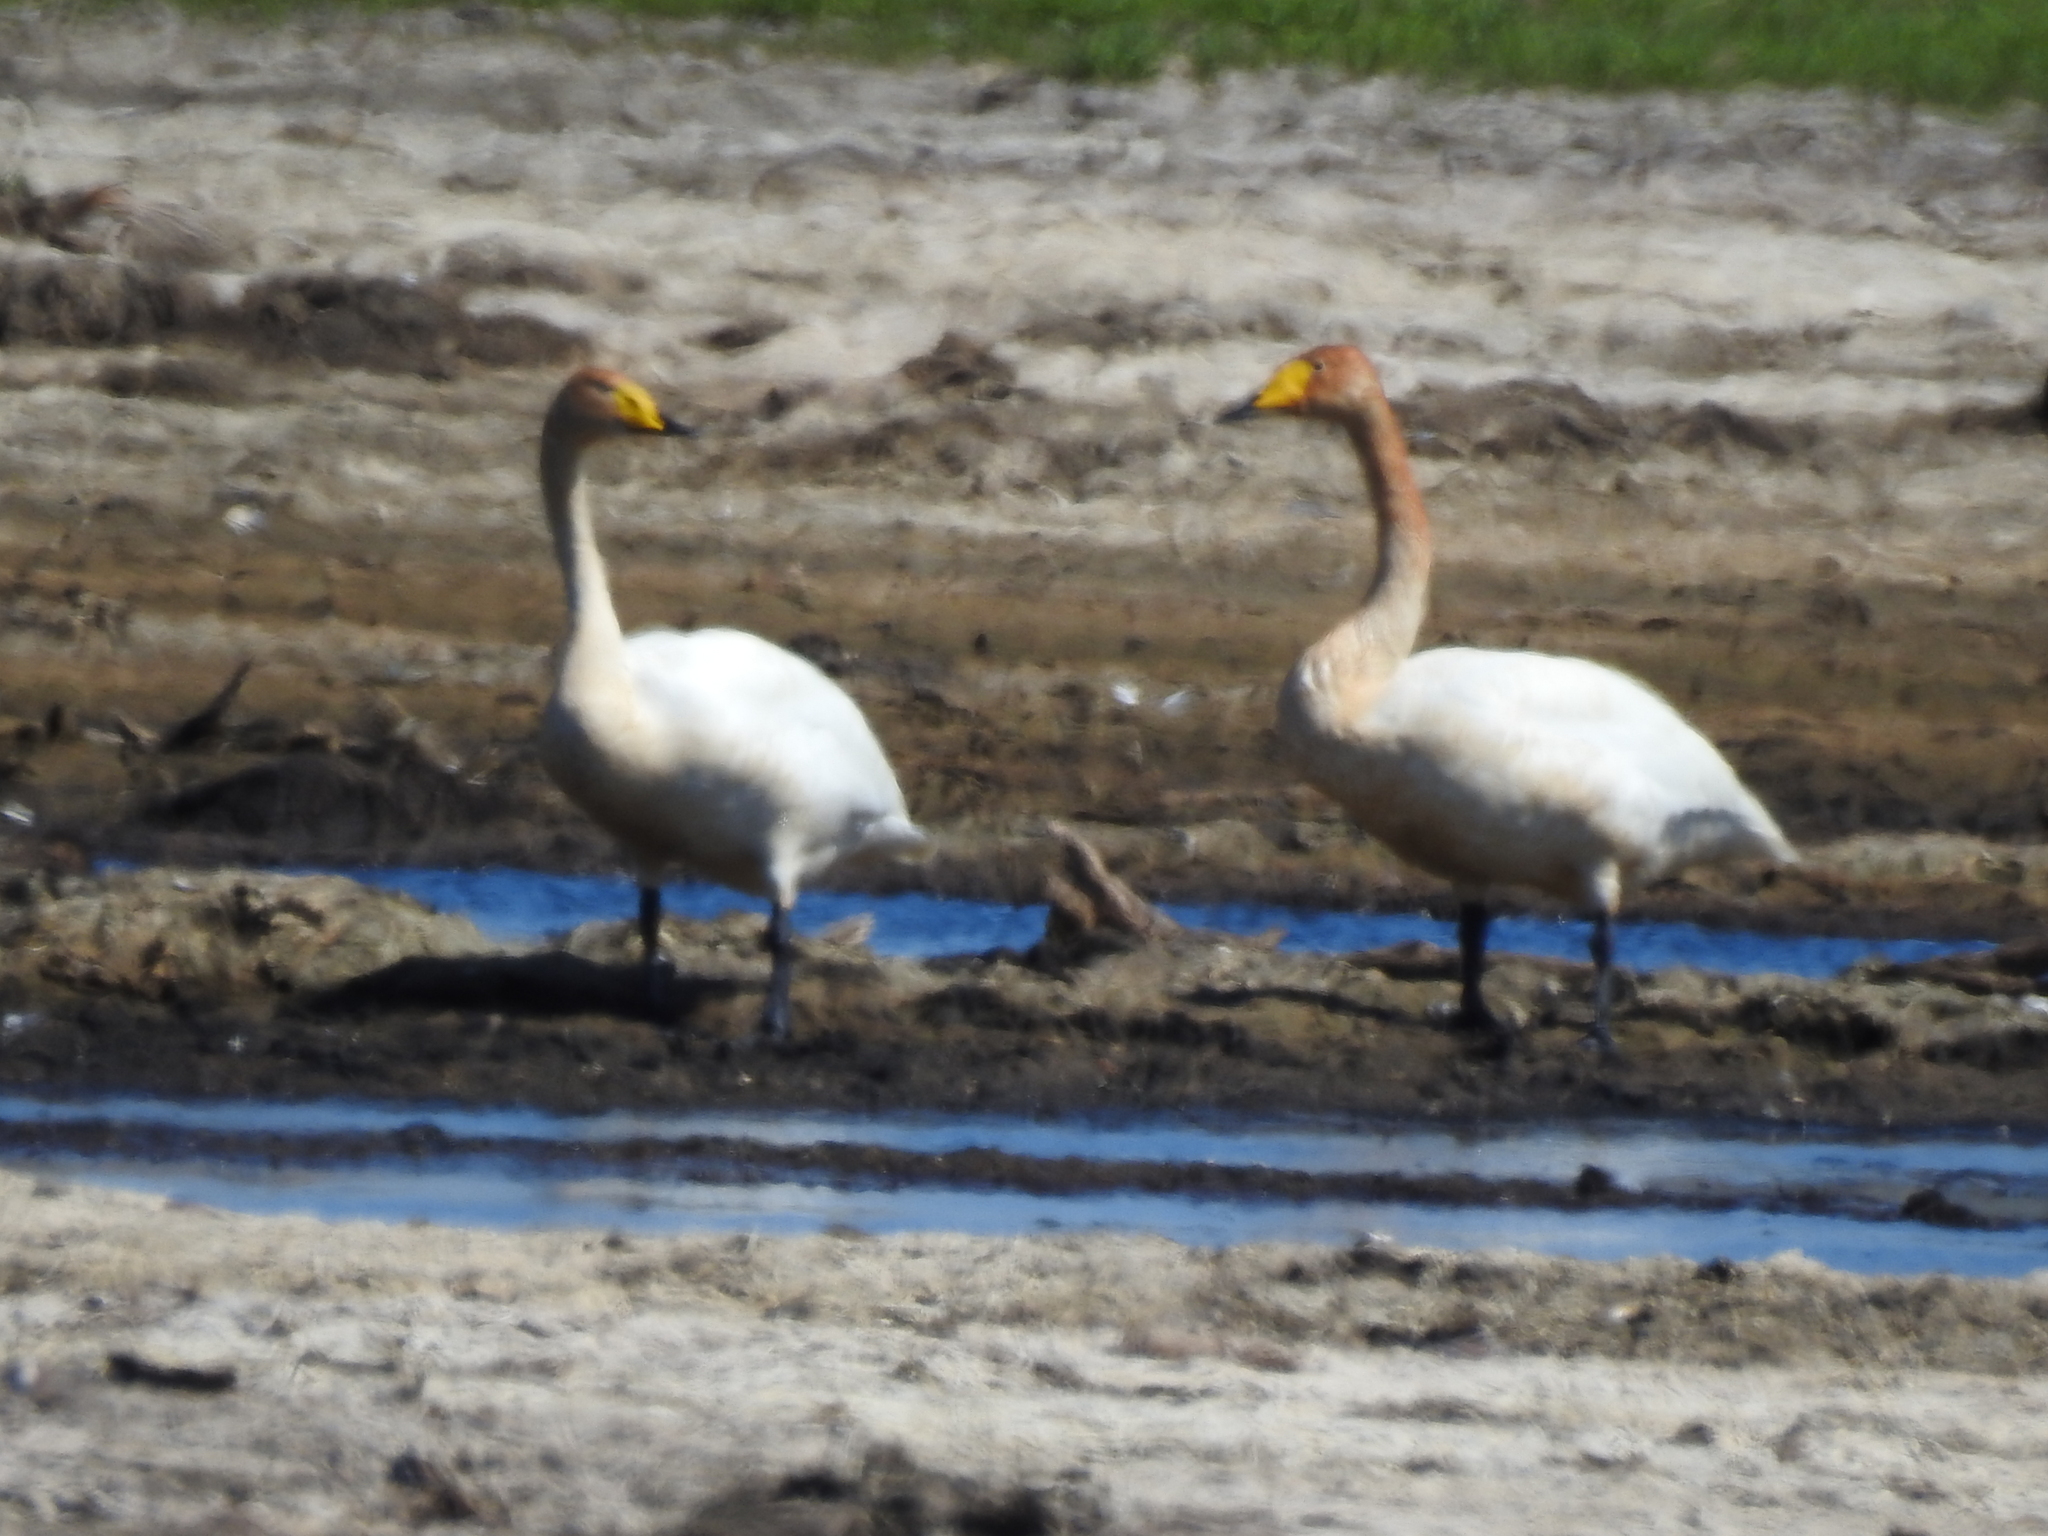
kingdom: Animalia
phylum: Chordata
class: Aves
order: Anseriformes
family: Anatidae
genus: Cygnus
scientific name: Cygnus cygnus
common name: Whooper swan
